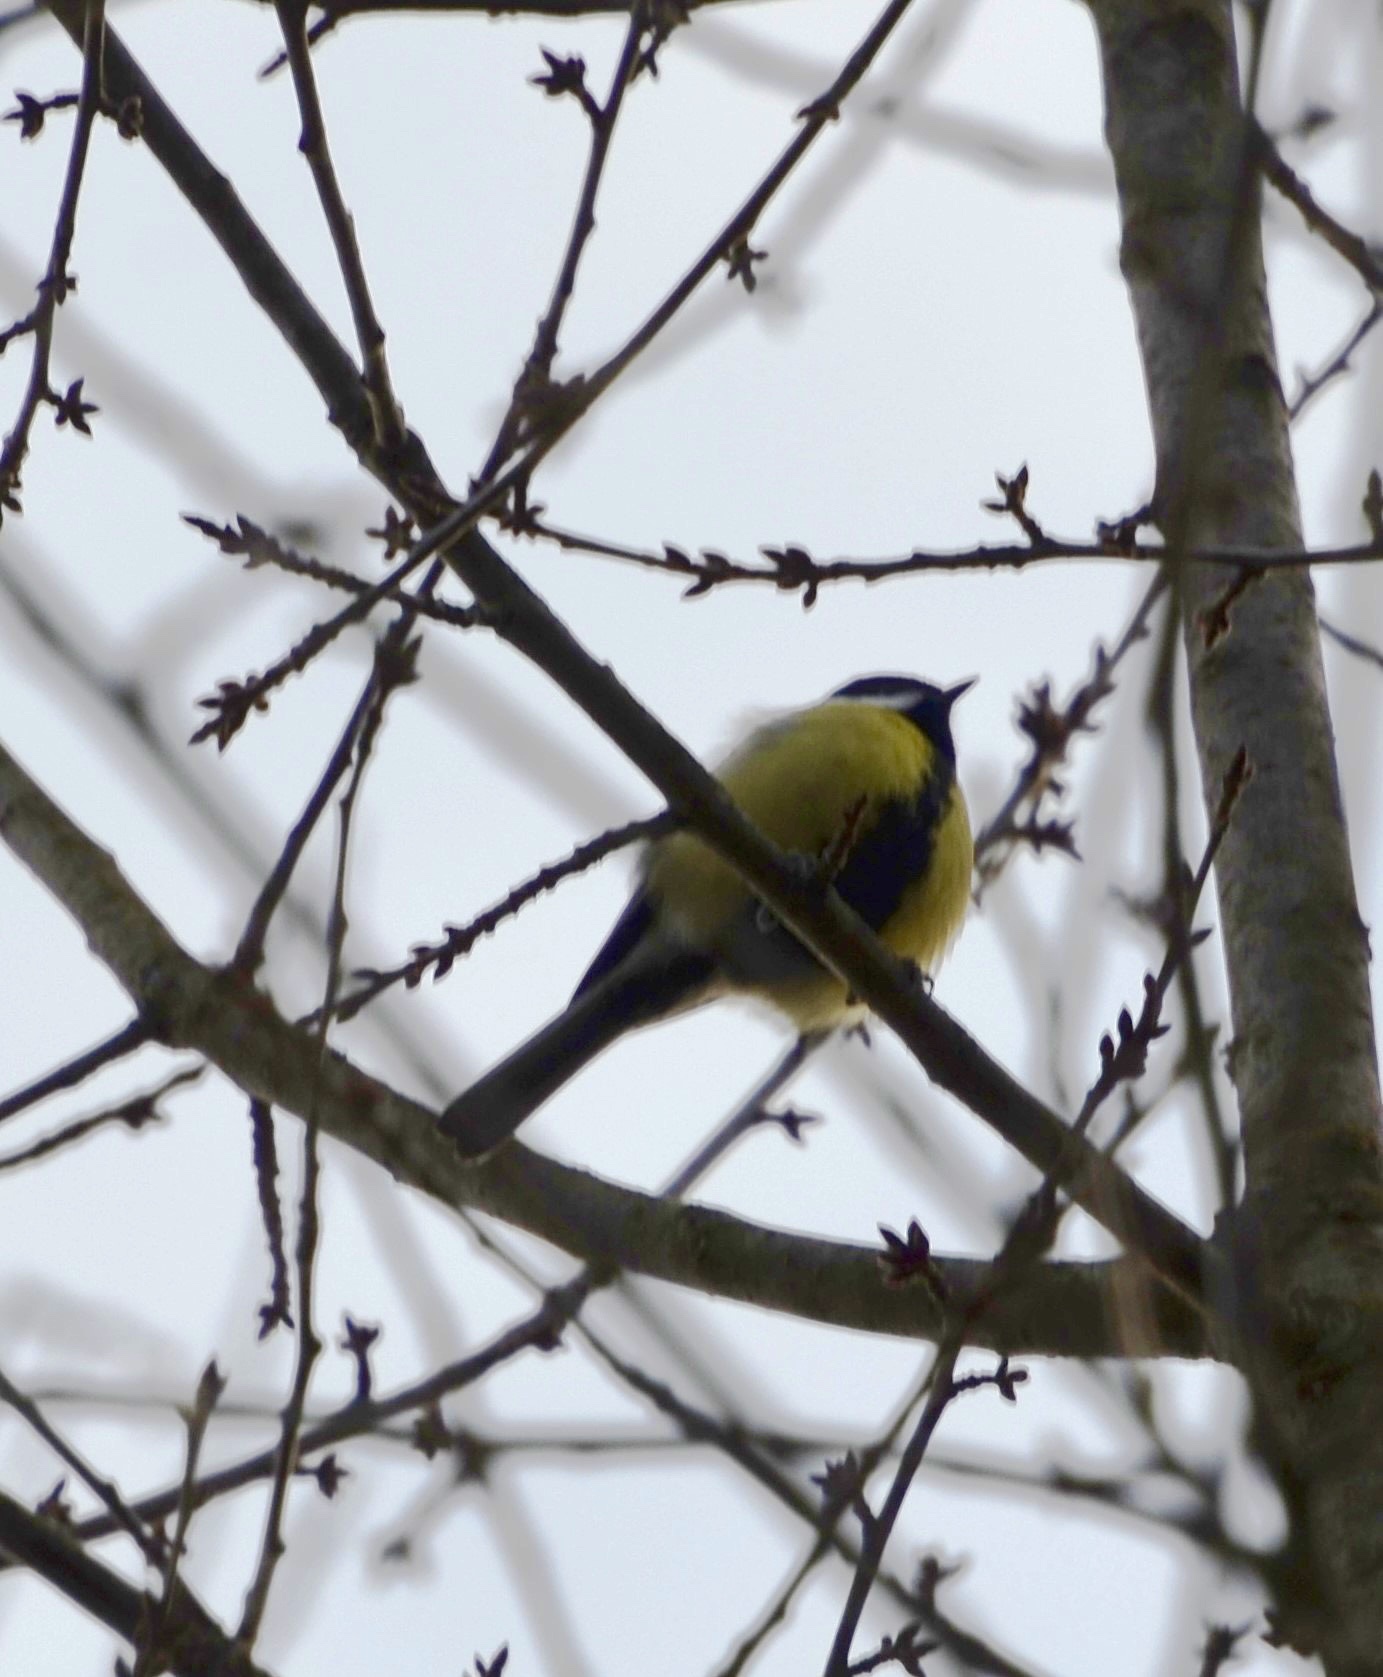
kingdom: Animalia
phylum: Chordata
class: Aves
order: Passeriformes
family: Paridae
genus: Parus
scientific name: Parus major
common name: Great tit
